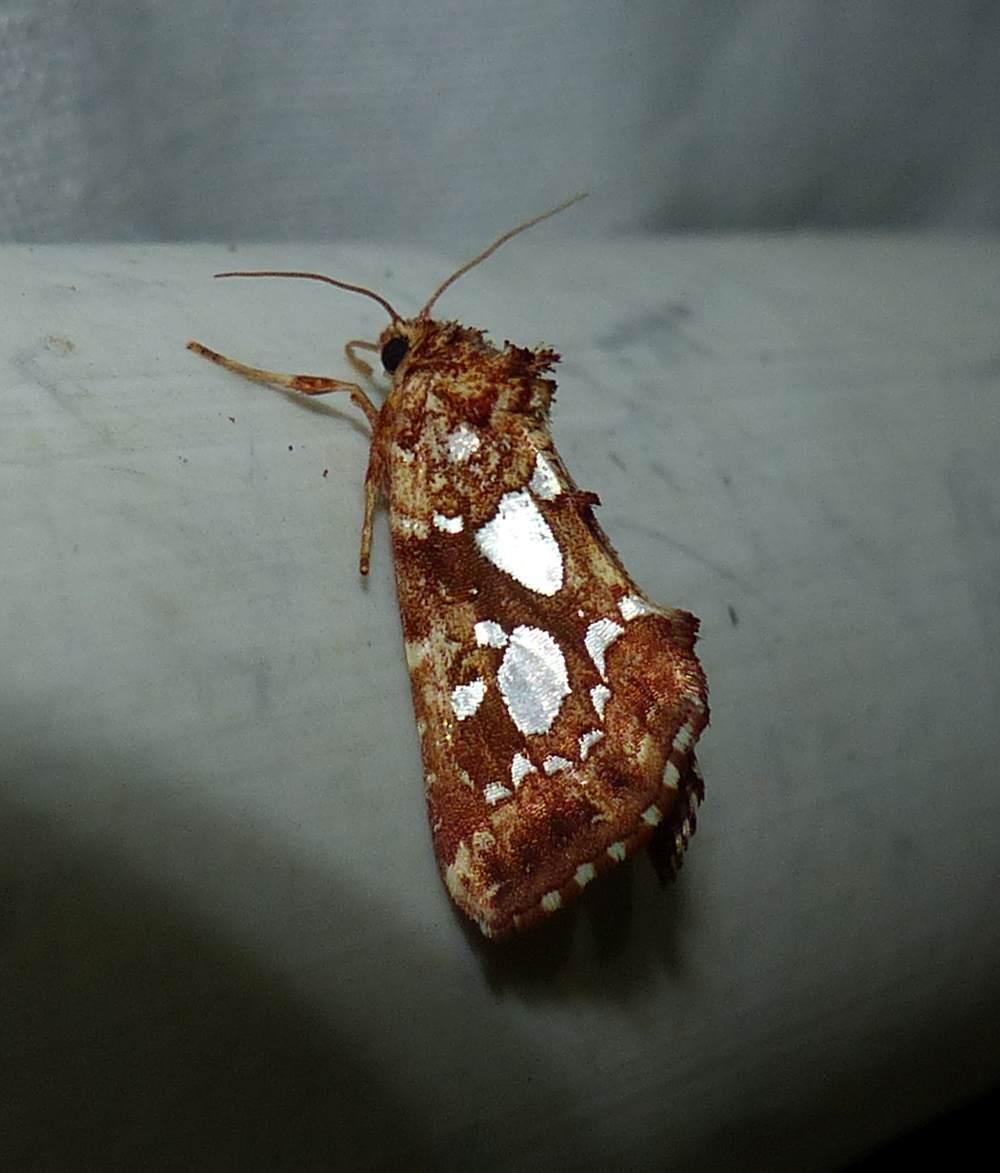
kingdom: Animalia
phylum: Arthropoda
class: Insecta
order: Lepidoptera
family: Noctuidae
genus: Callopistria
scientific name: Callopistria cordata
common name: Silver-spotted fern moth
